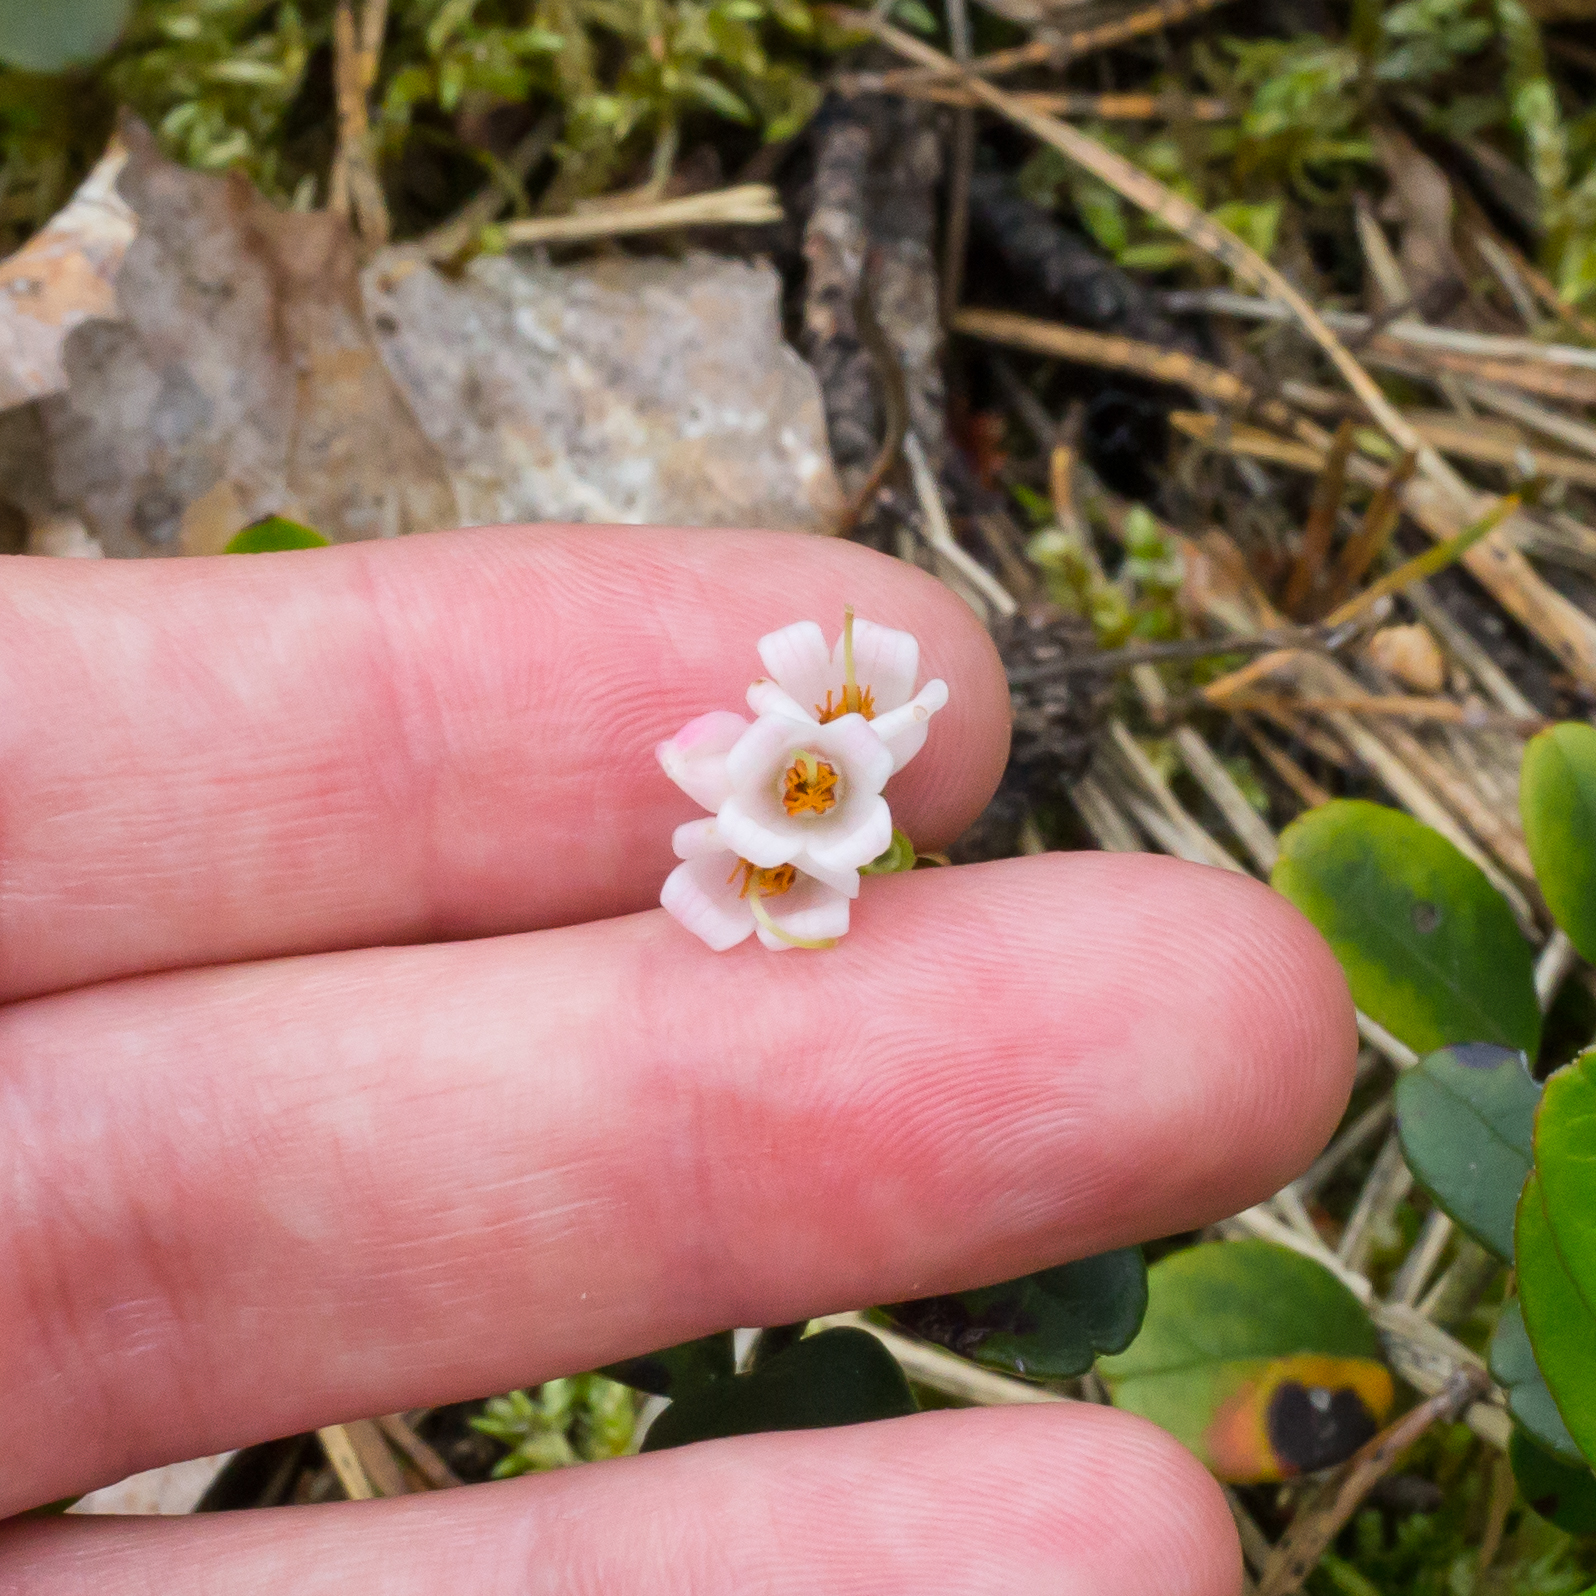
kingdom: Plantae
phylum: Tracheophyta
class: Magnoliopsida
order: Ericales
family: Ericaceae
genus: Vaccinium
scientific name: Vaccinium vitis-idaea
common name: Cowberry
